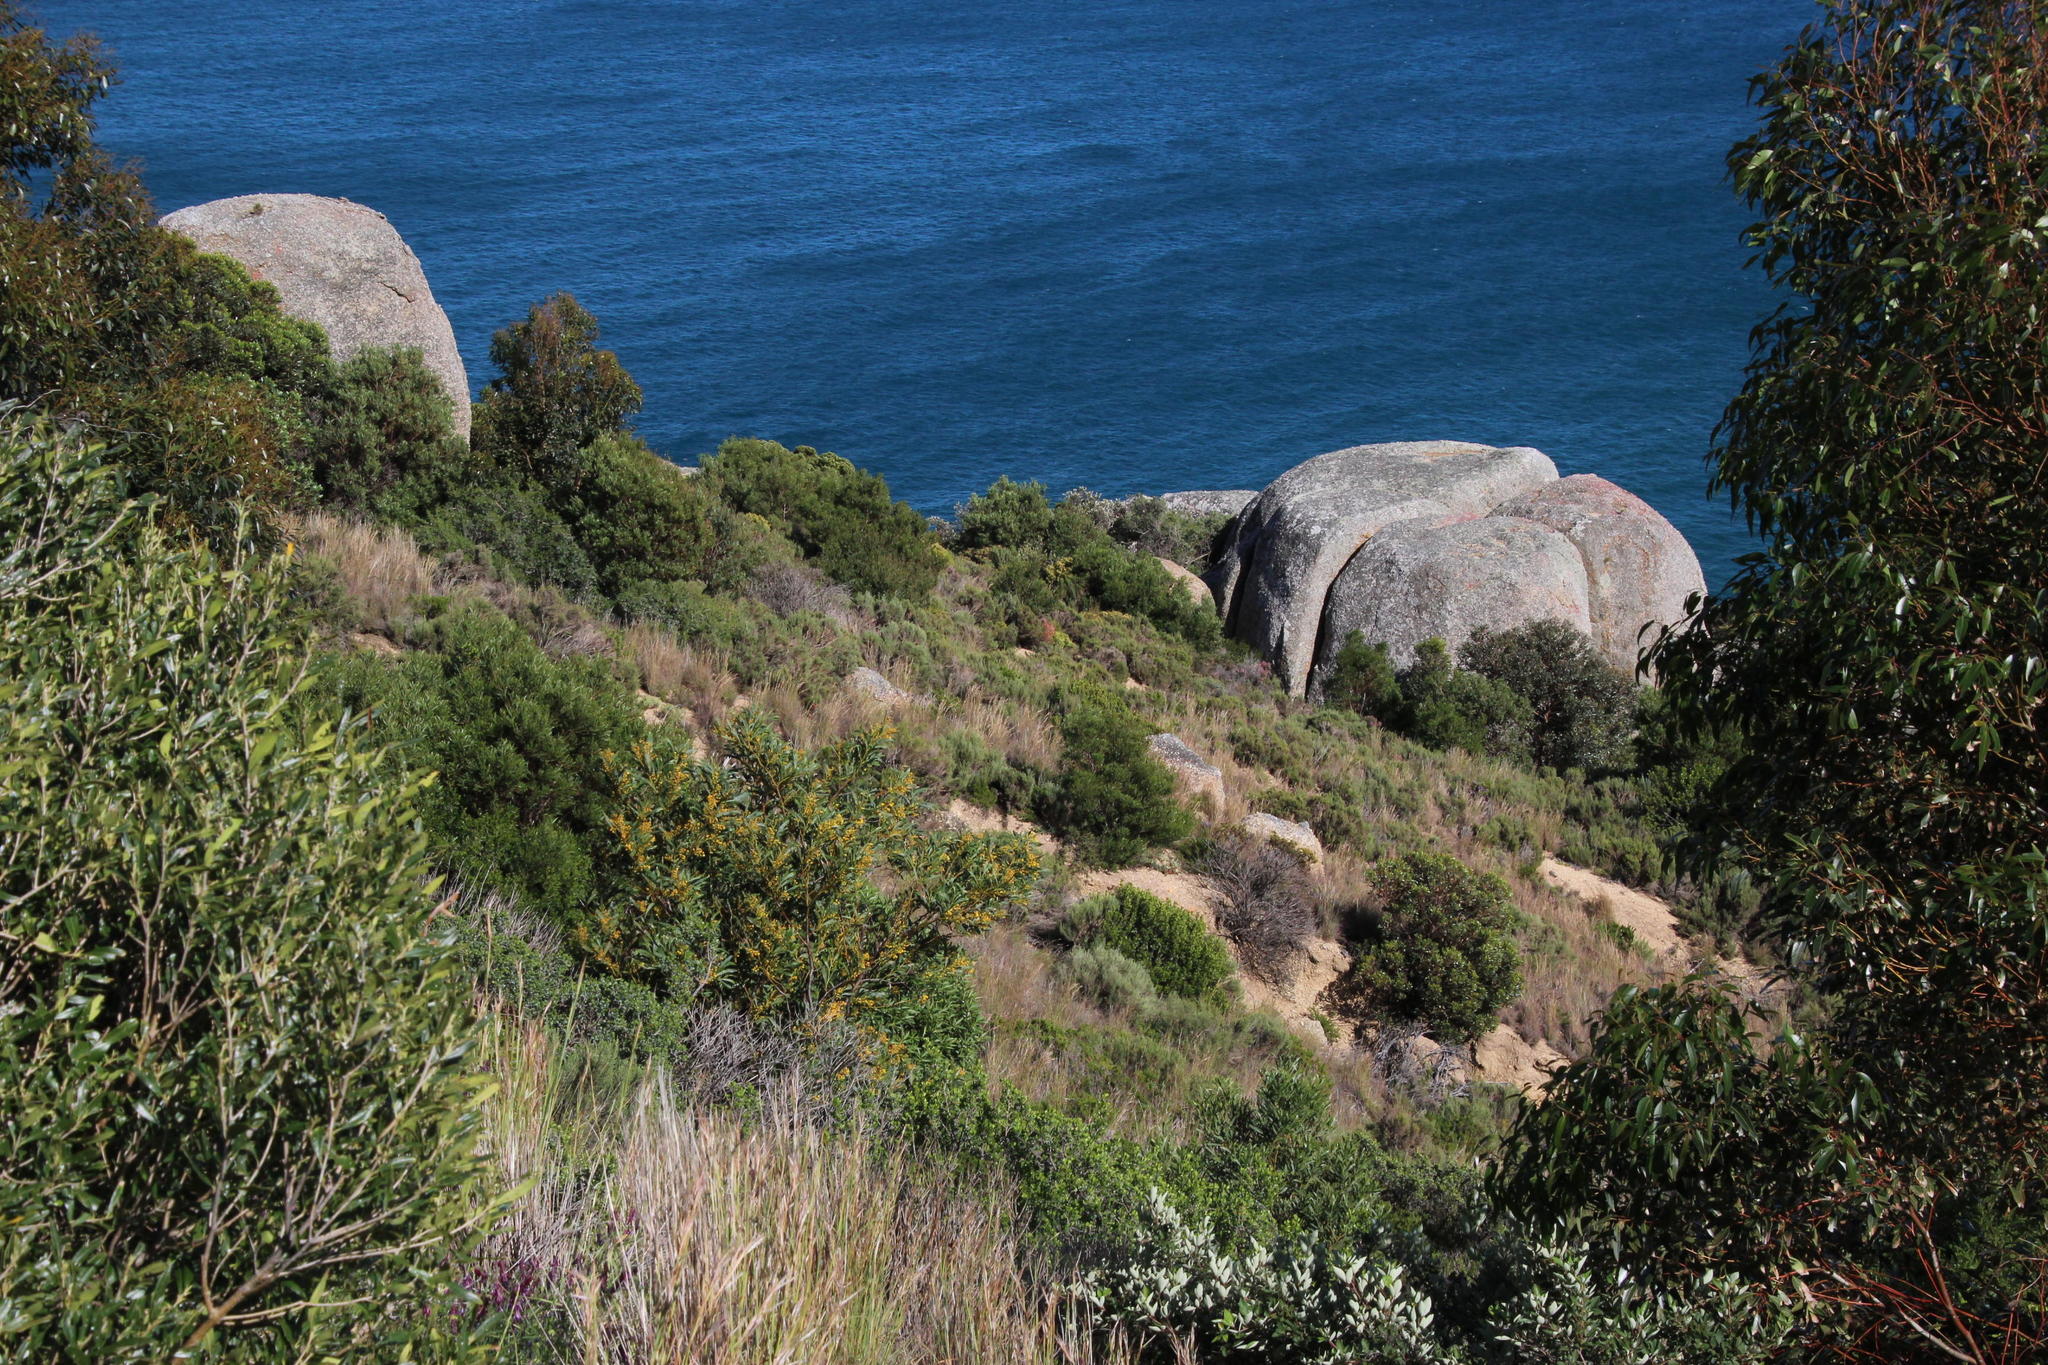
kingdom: Plantae
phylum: Tracheophyta
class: Magnoliopsida
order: Fabales
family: Fabaceae
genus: Acacia
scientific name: Acacia saligna
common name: Orange wattle
